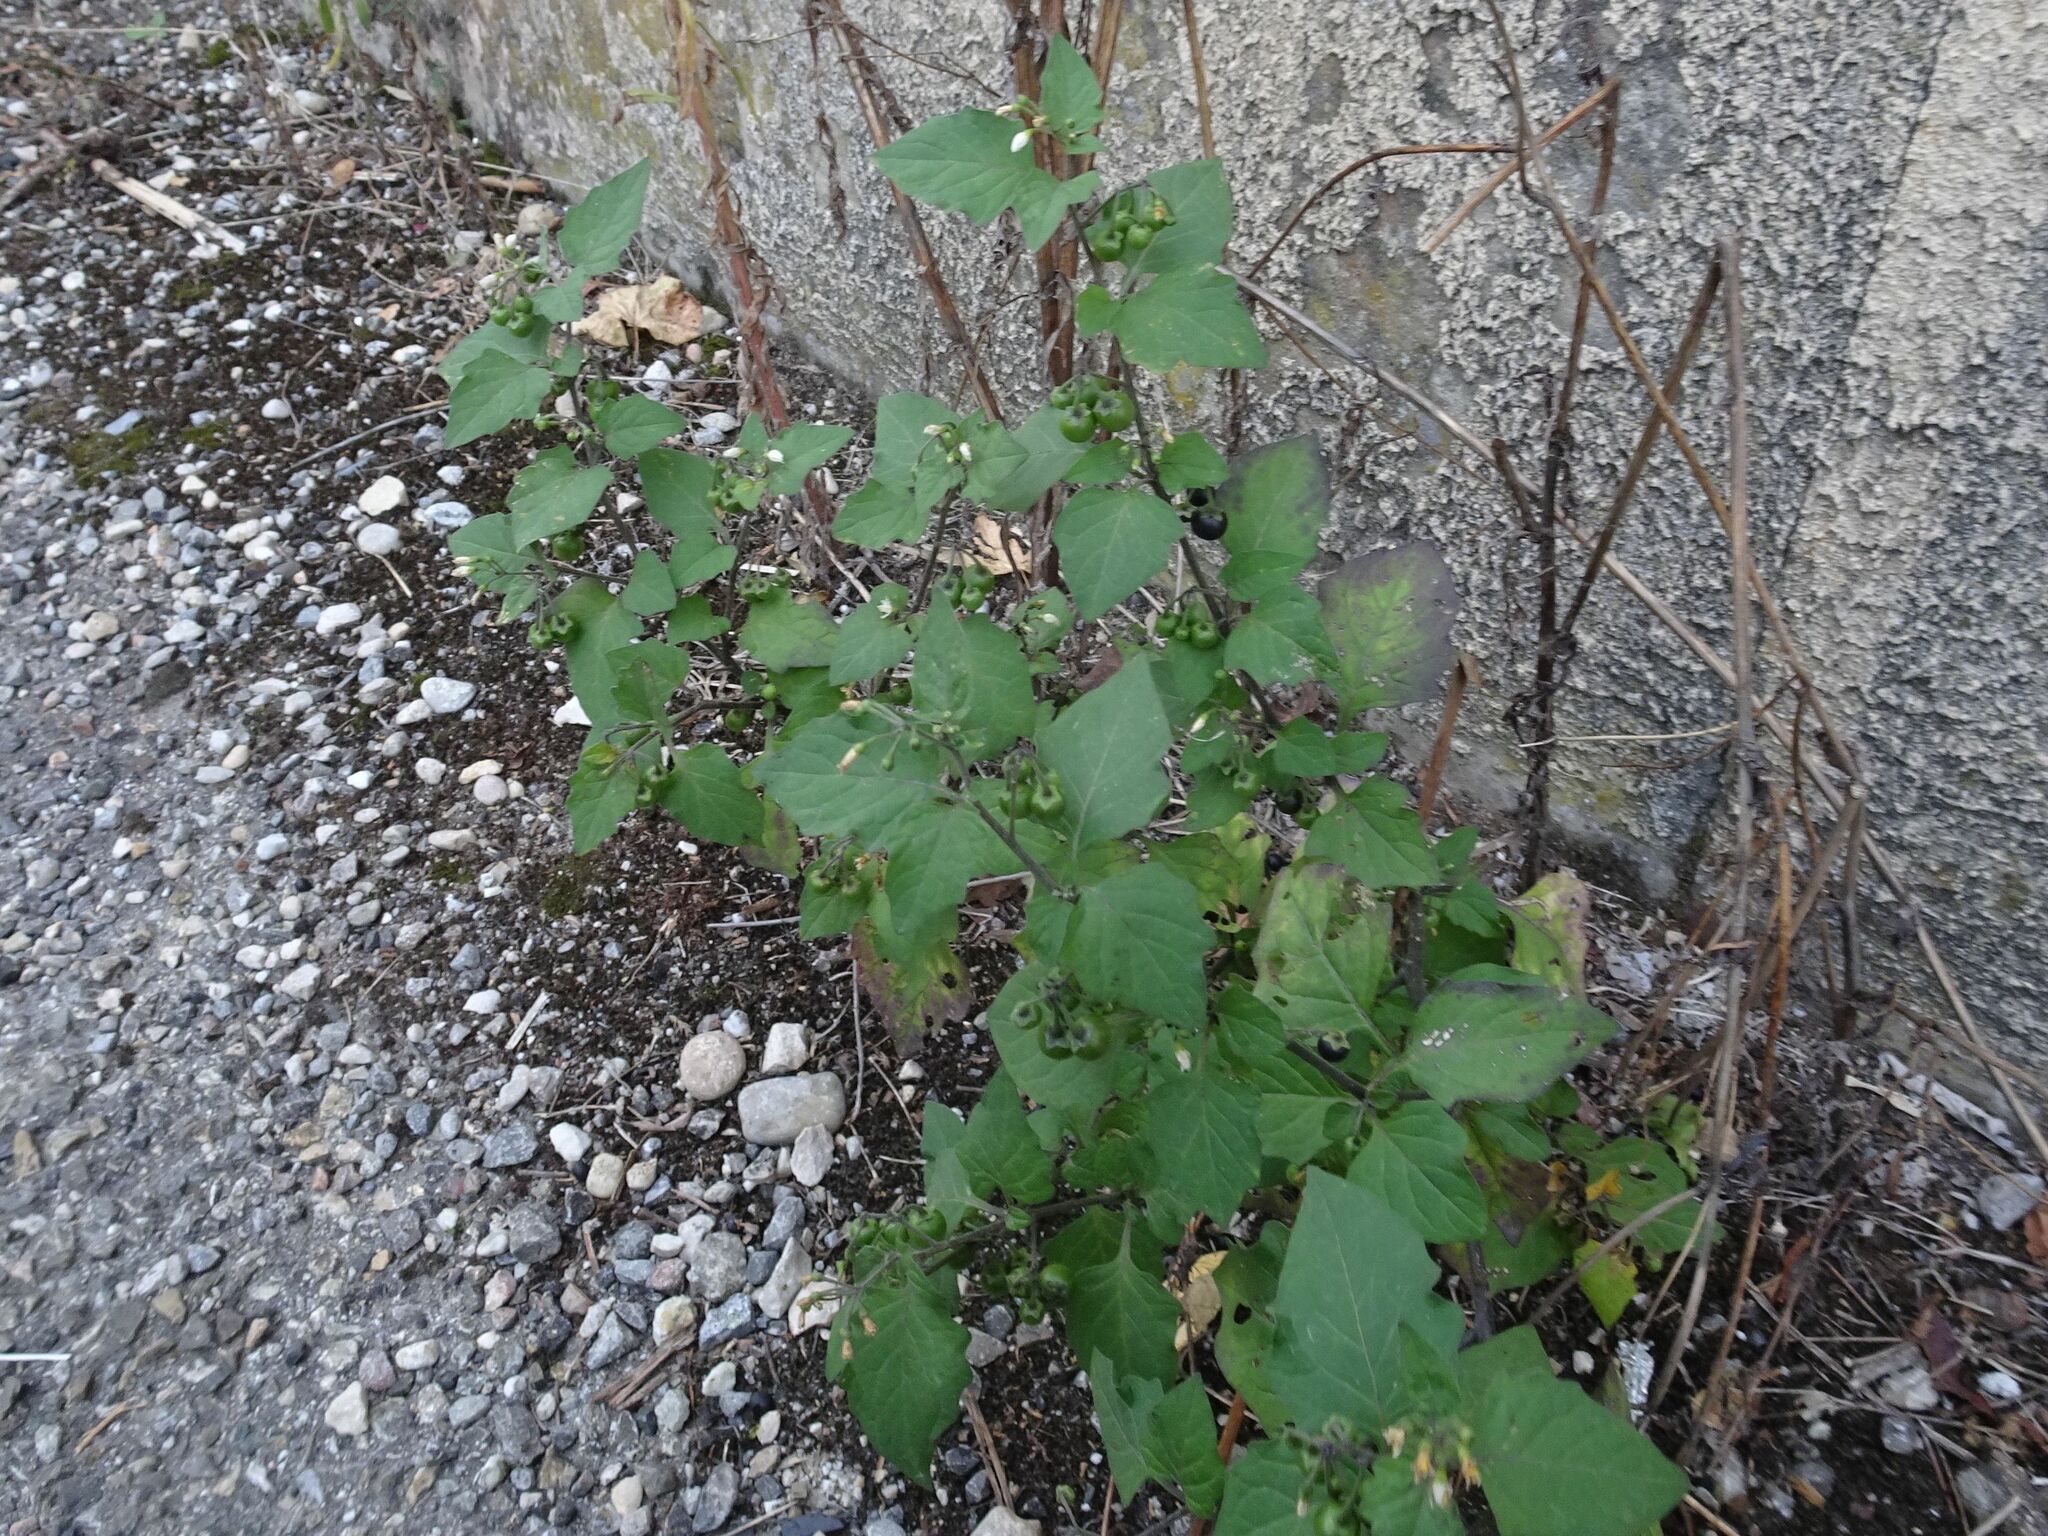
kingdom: Plantae
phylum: Tracheophyta
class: Magnoliopsida
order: Solanales
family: Solanaceae
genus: Solanum
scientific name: Solanum nigrum
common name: Black nightshade
